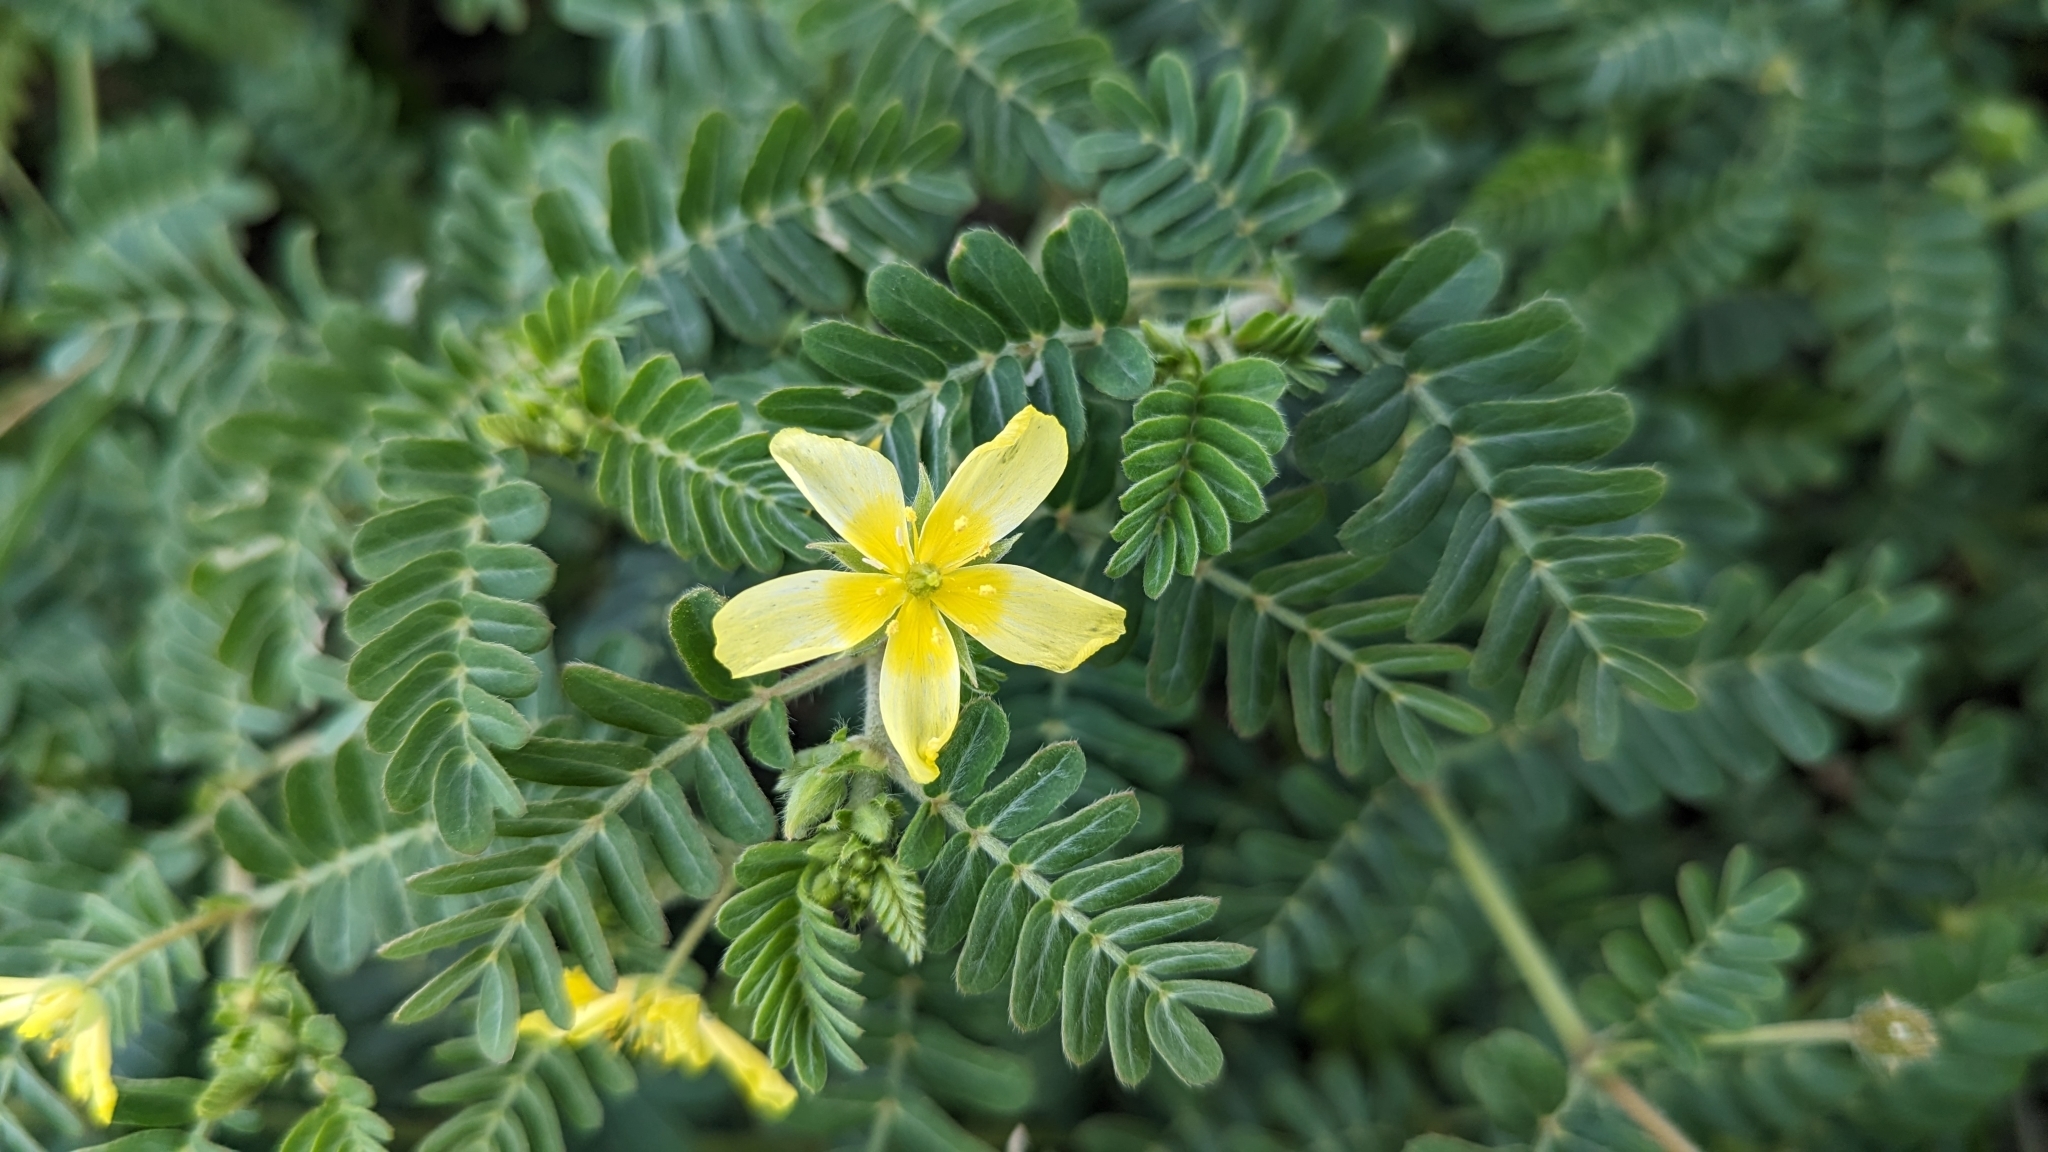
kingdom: Plantae
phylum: Tracheophyta
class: Magnoliopsida
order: Zygophyllales
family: Zygophyllaceae
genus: Tribulus
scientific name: Tribulus cistoides
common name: Jamaican feverplant
